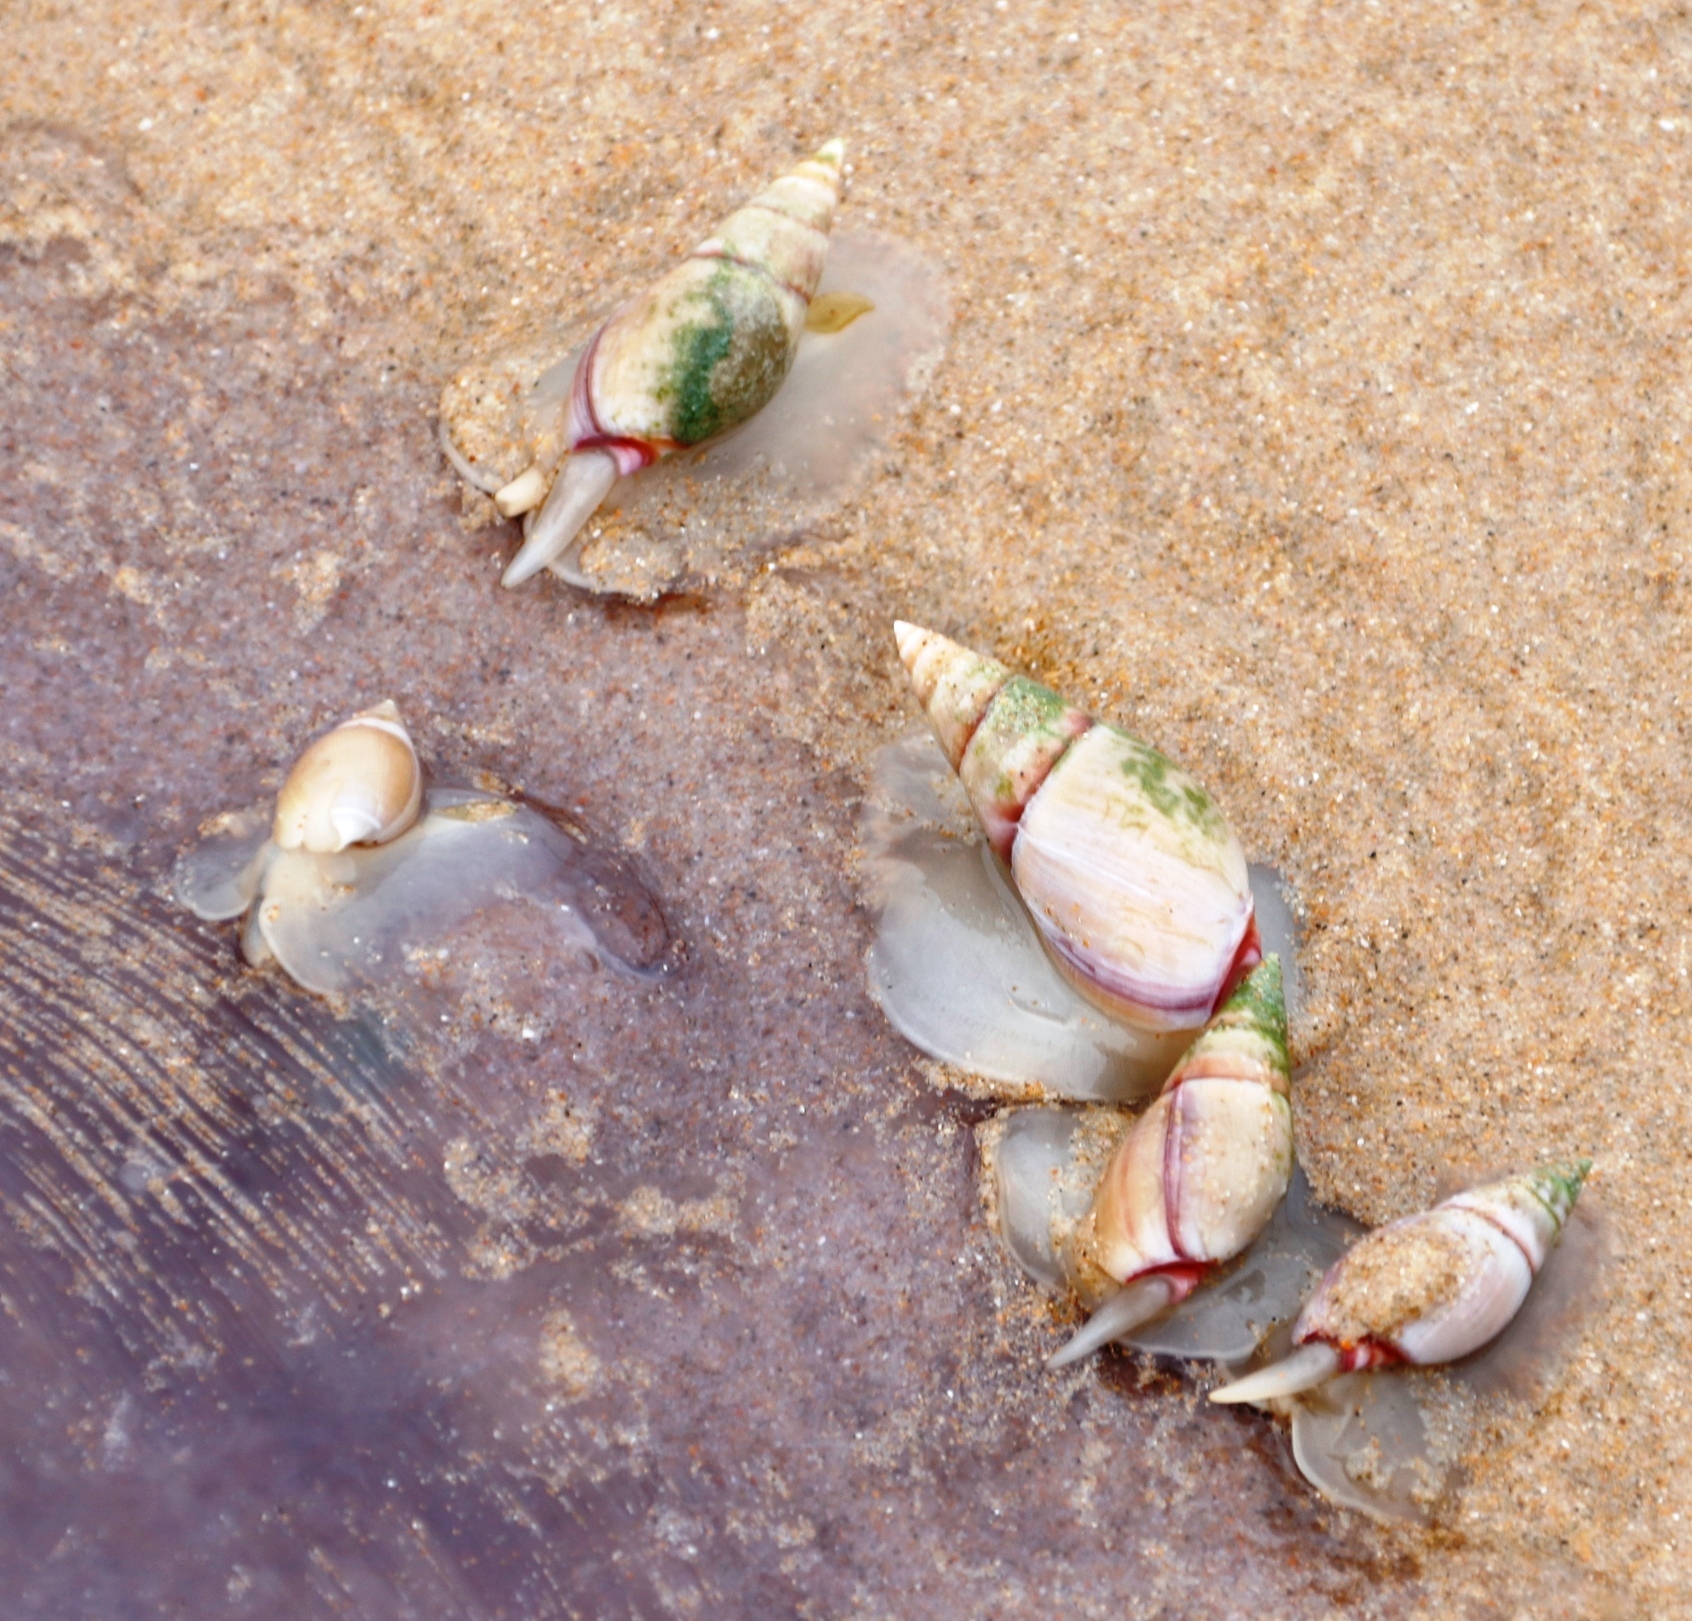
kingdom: Animalia
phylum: Mollusca
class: Gastropoda
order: Neogastropoda
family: Nassariidae
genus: Bullia
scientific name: Bullia rhodostoma
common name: Smooth plough shell
